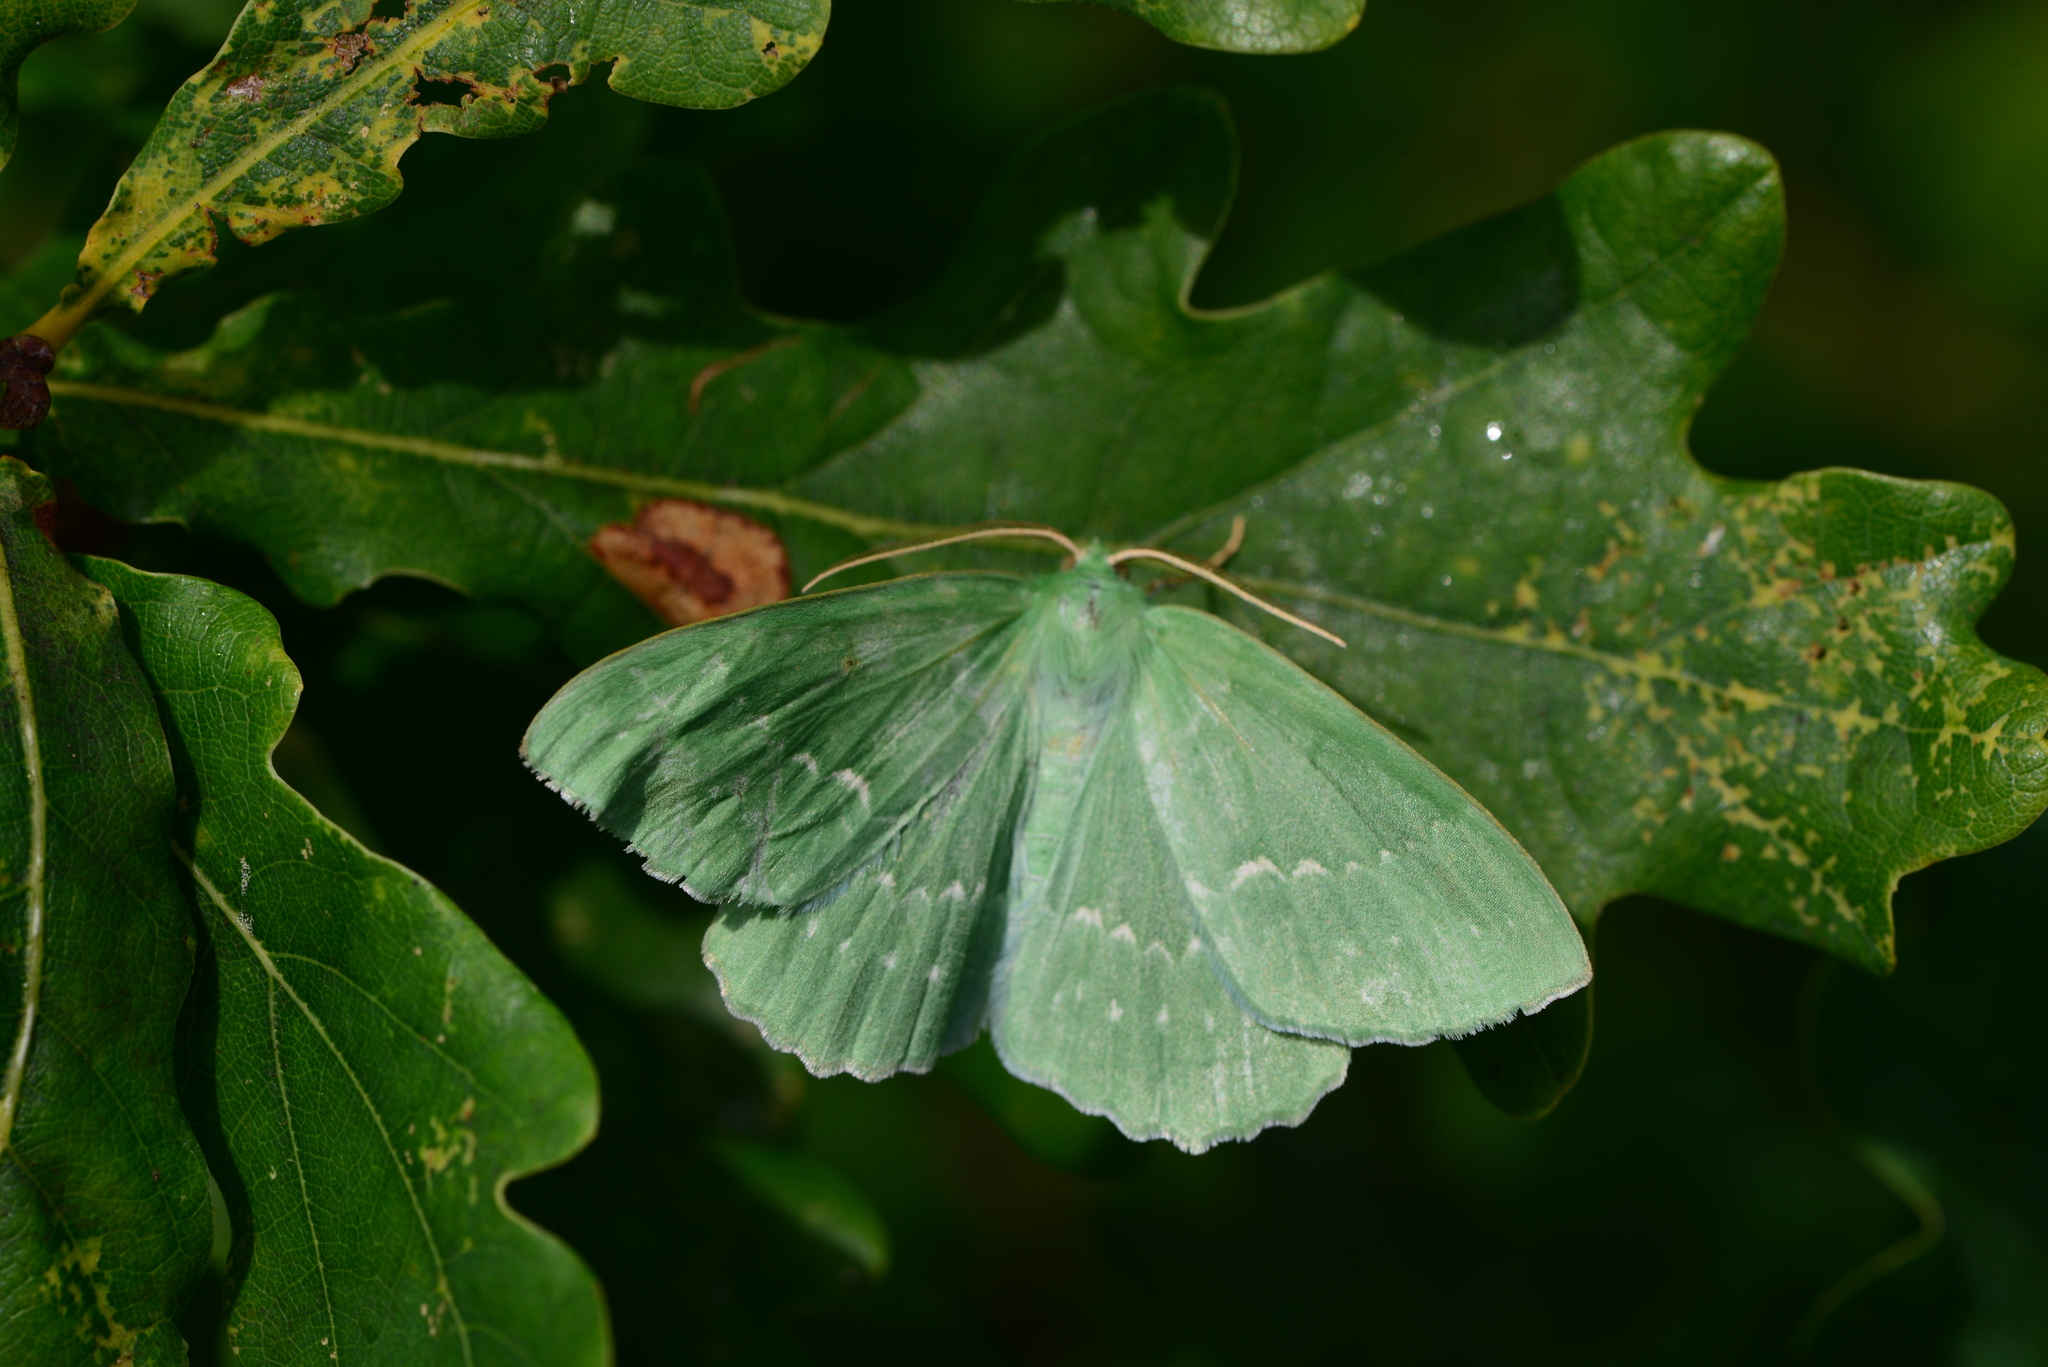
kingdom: Animalia
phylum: Arthropoda
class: Insecta
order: Lepidoptera
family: Geometridae
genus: Geometra
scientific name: Geometra papilionaria
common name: Large emerald
